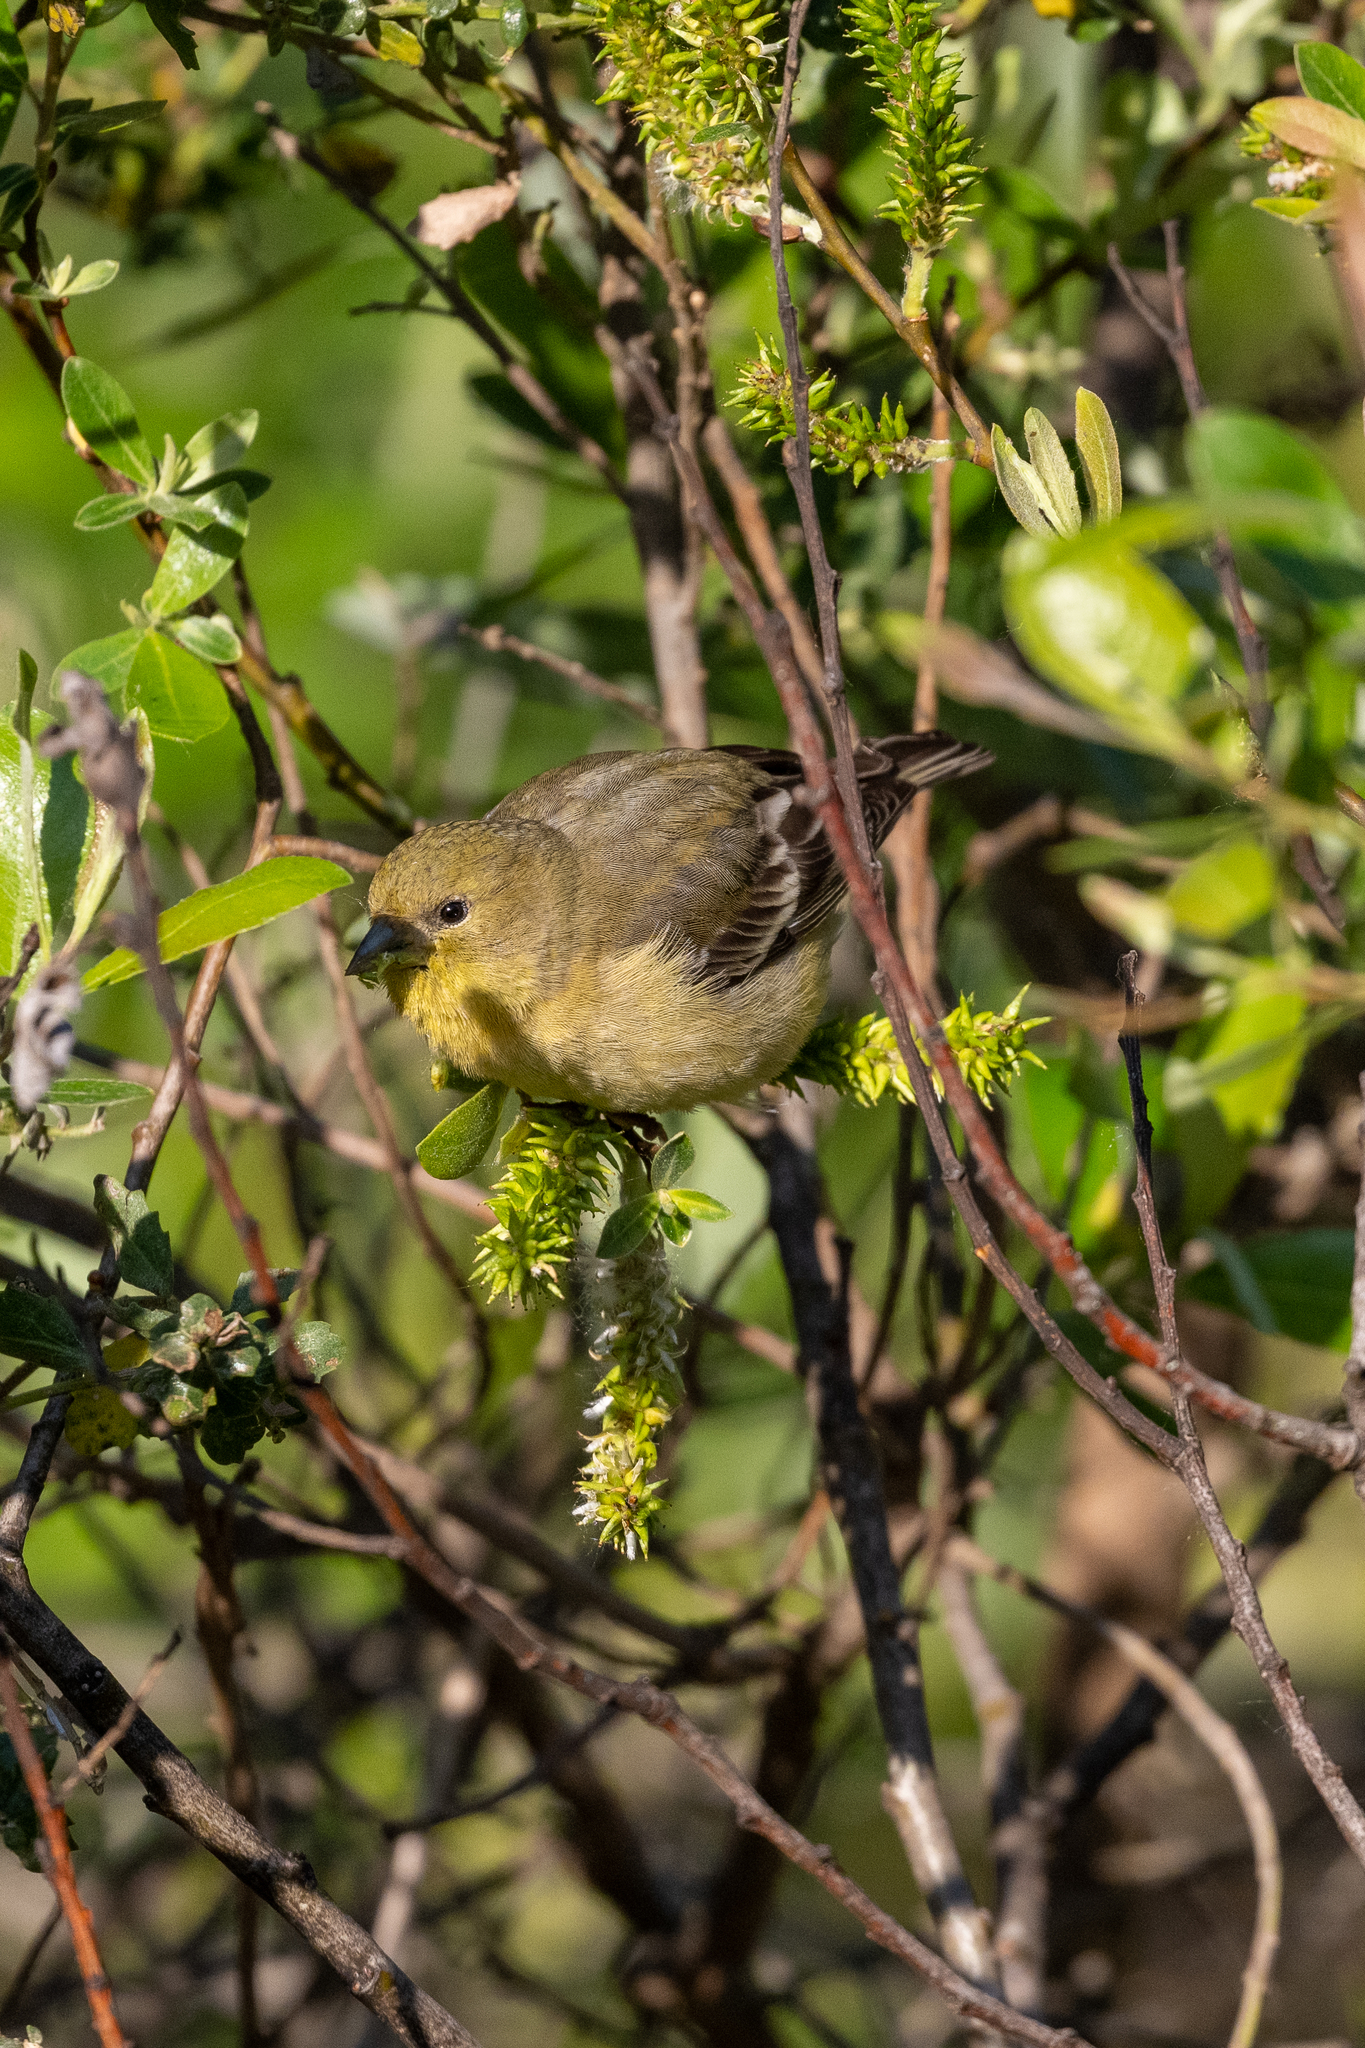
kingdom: Animalia
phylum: Chordata
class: Aves
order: Passeriformes
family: Fringillidae
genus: Spinus
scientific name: Spinus psaltria
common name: Lesser goldfinch
